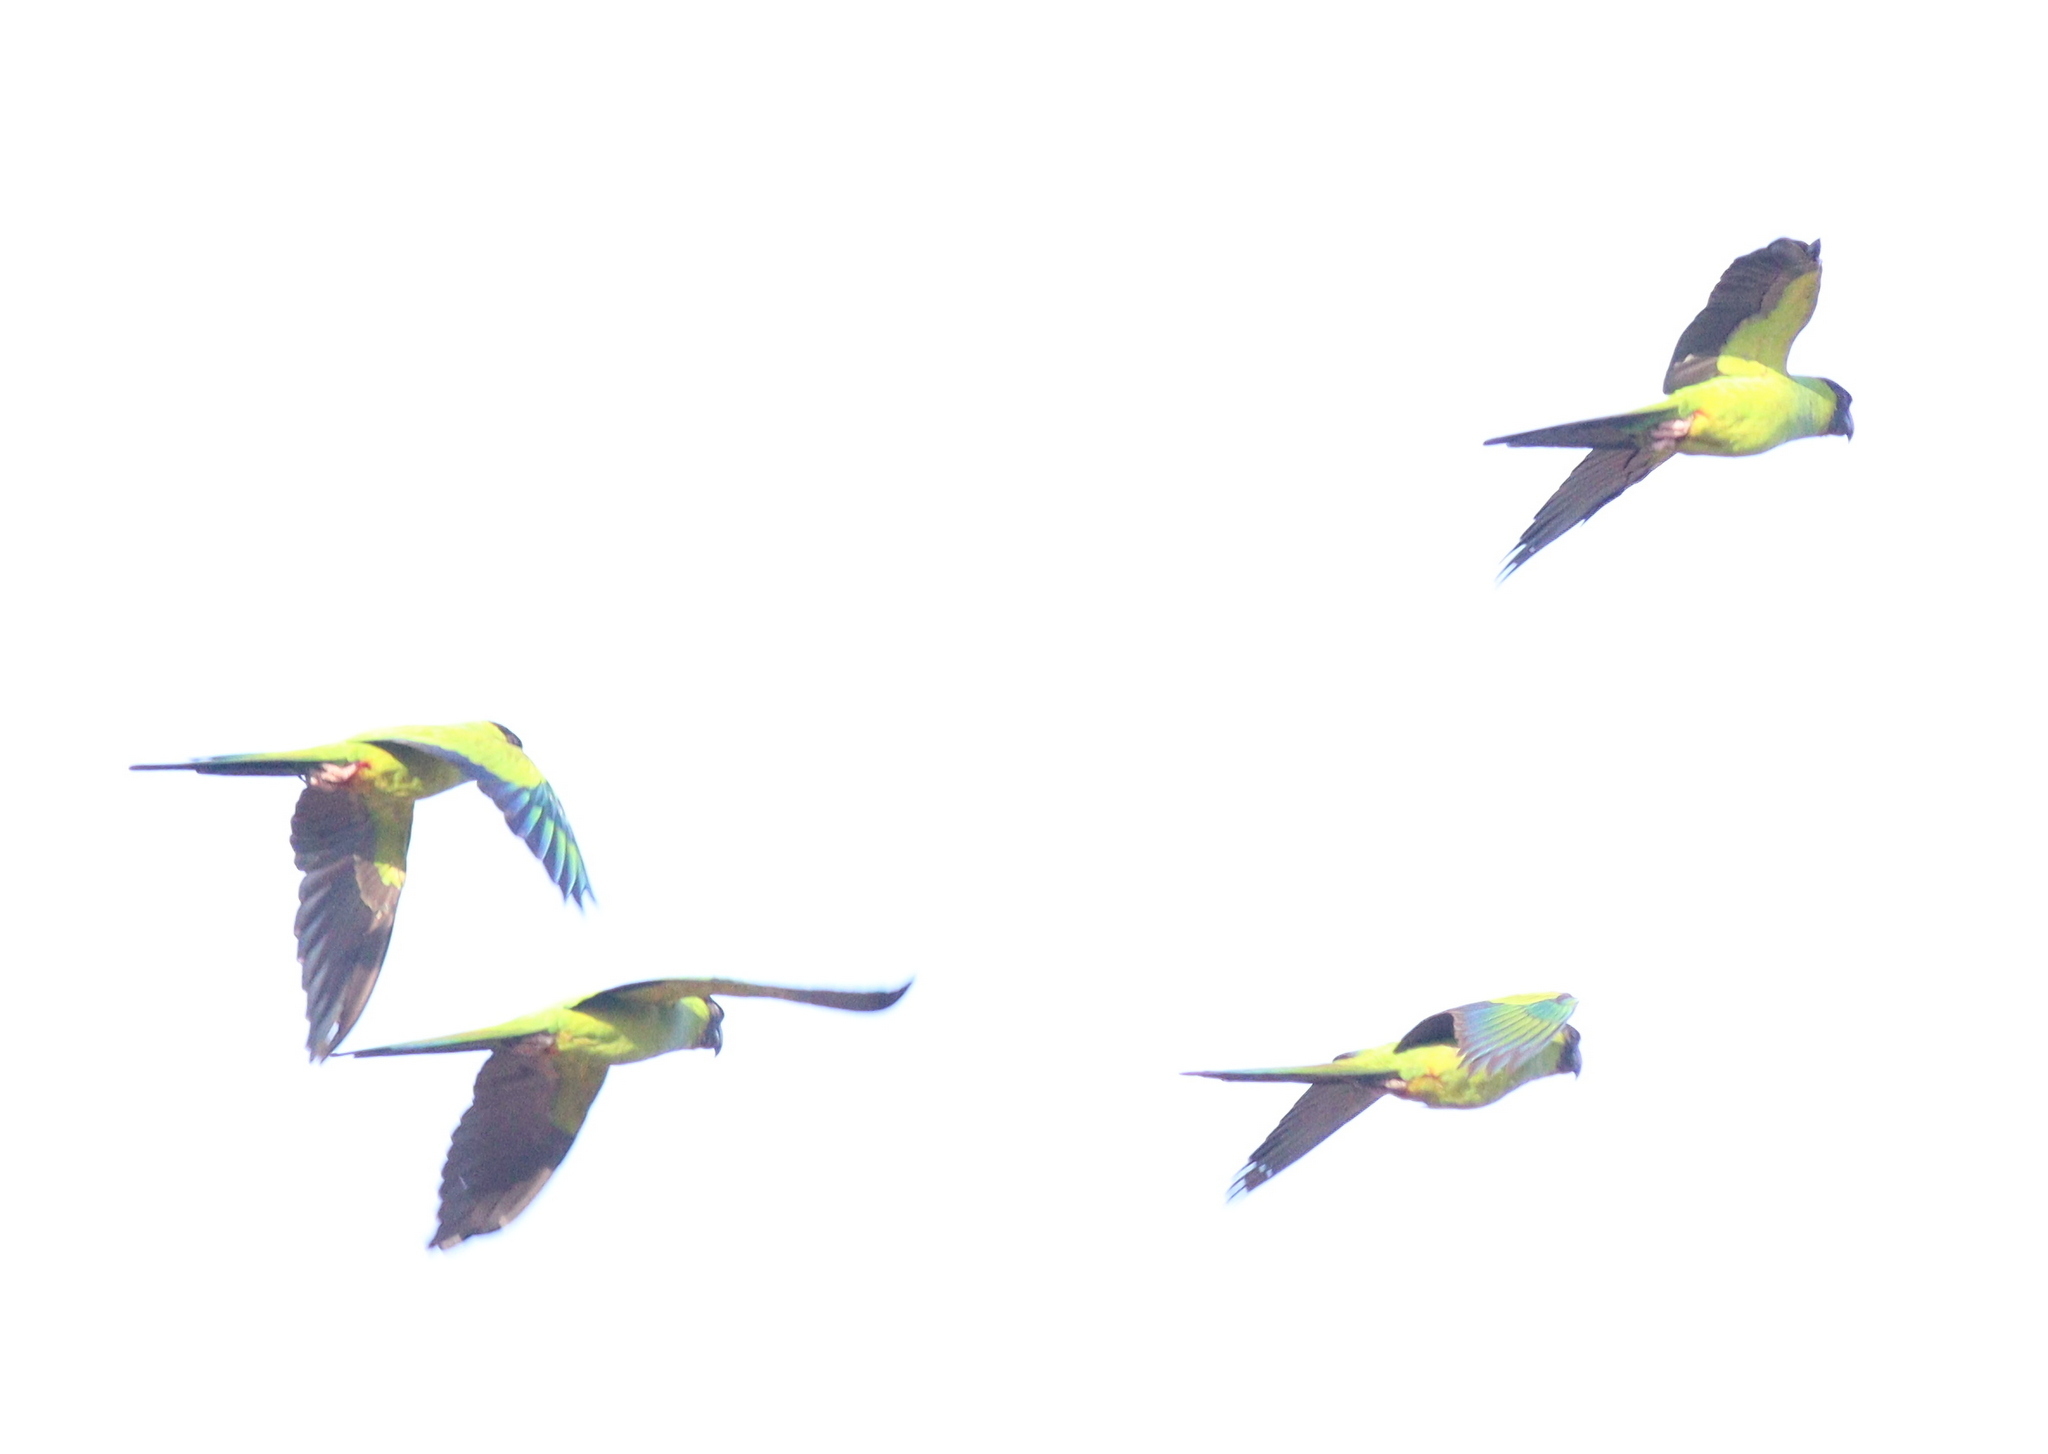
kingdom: Animalia
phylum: Chordata
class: Aves
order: Psittaciformes
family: Psittacidae
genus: Nandayus
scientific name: Nandayus nenday
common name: Nanday parakeet
